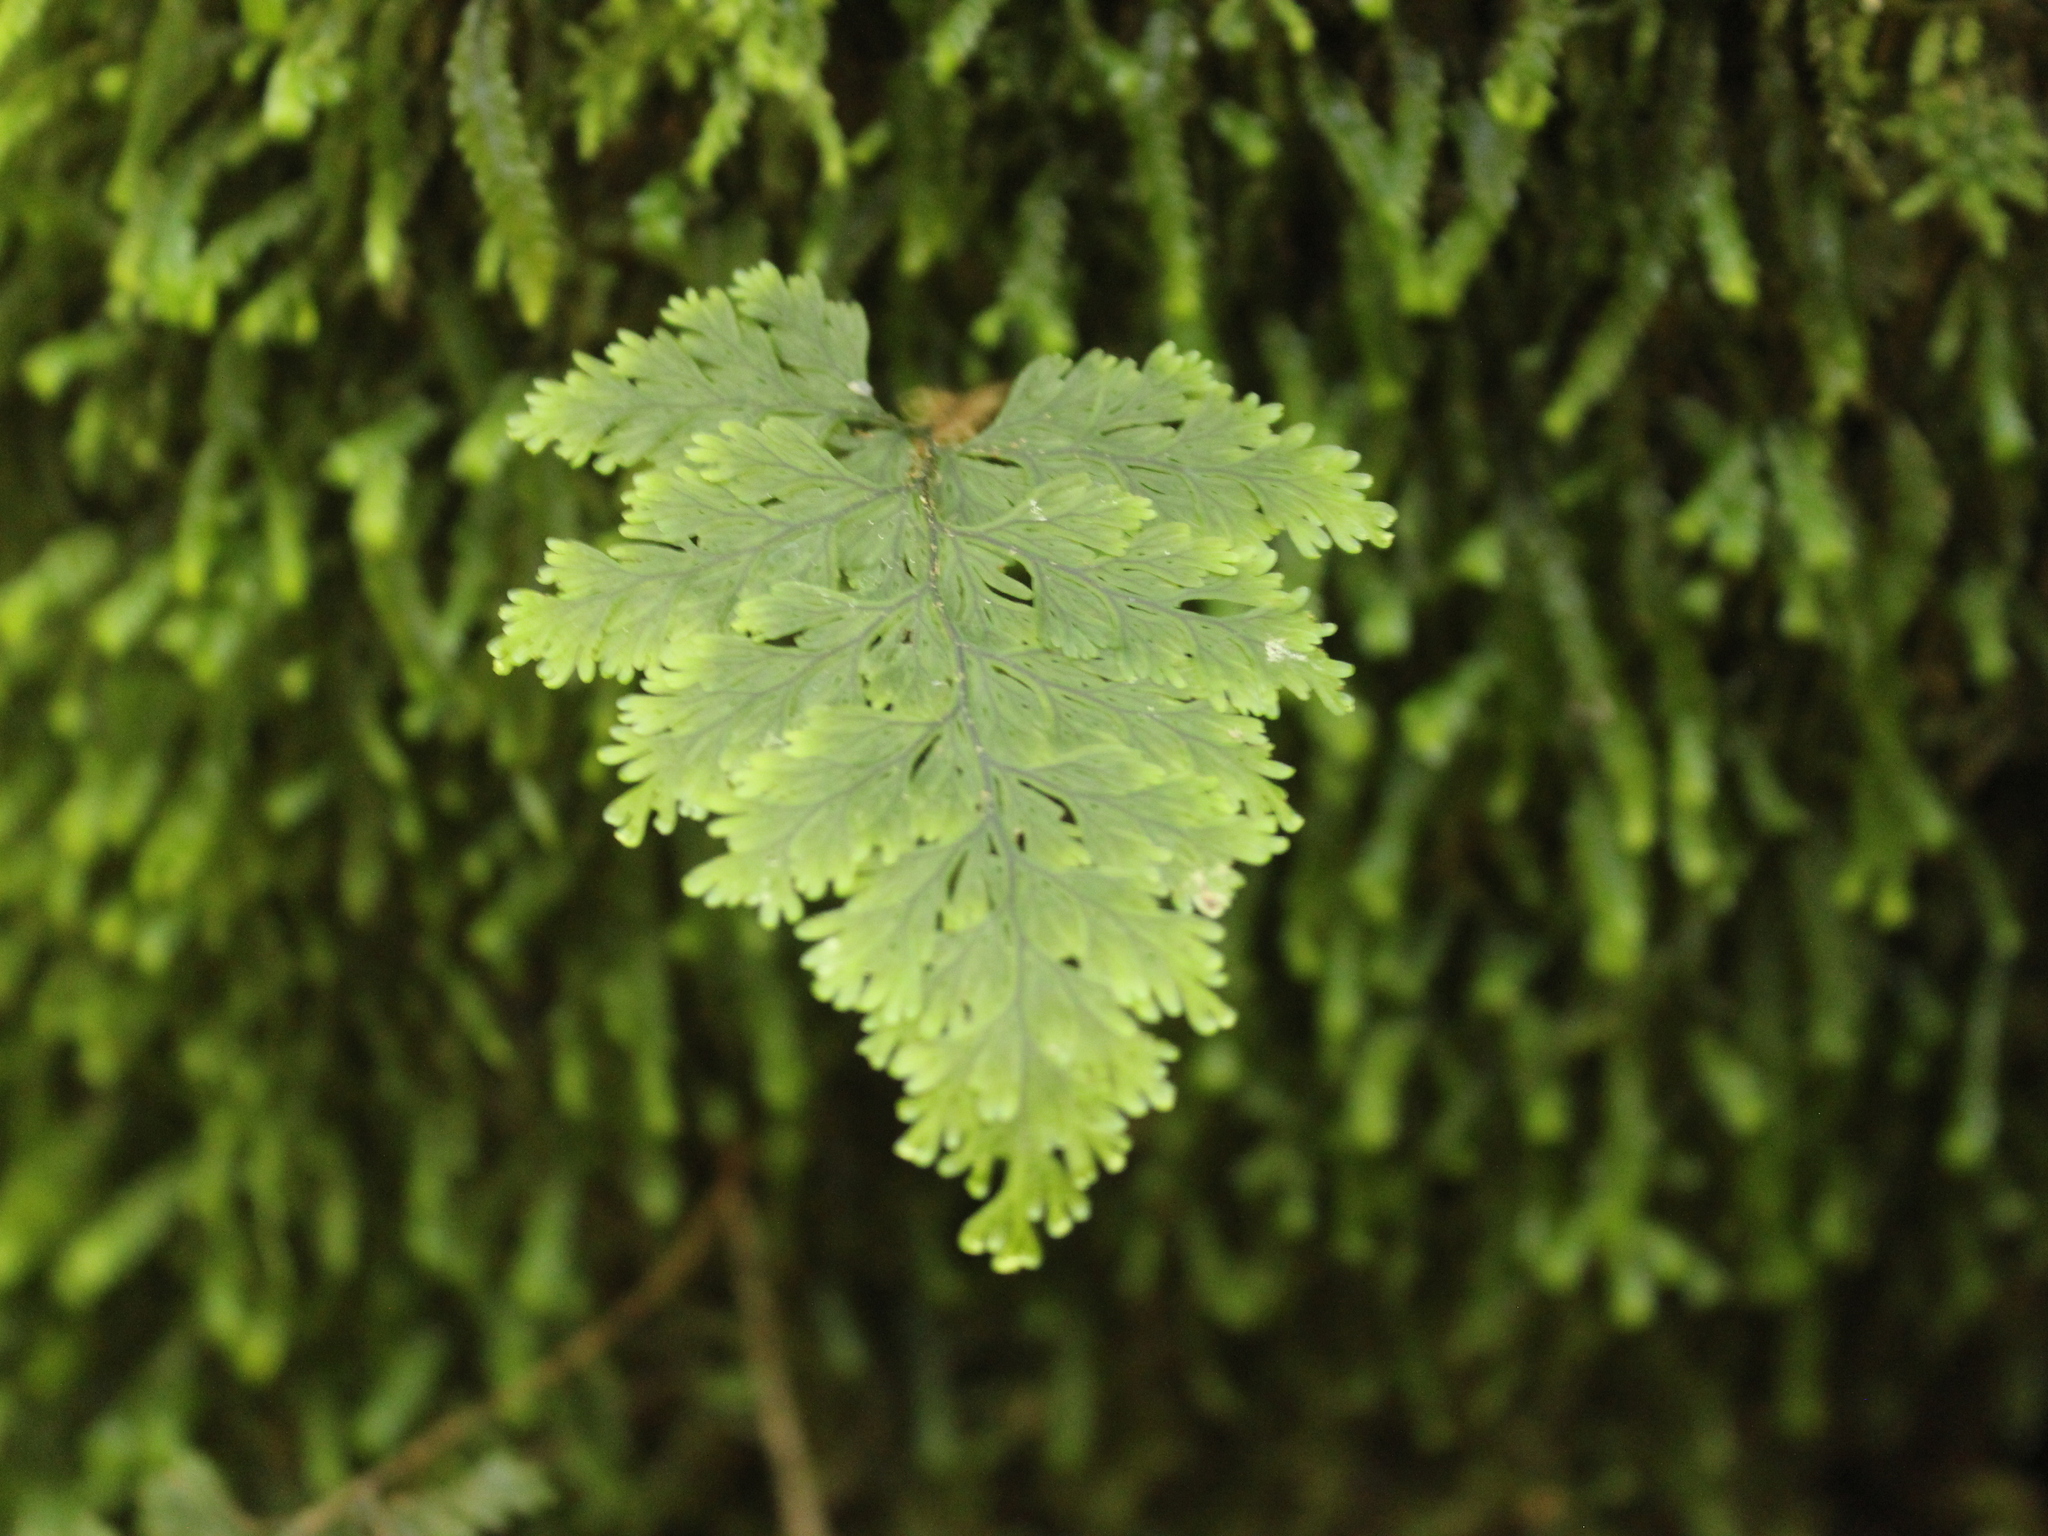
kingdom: Plantae
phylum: Tracheophyta
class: Polypodiopsida
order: Hymenophyllales
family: Hymenophyllaceae
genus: Hymenophyllum
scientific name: Hymenophyllum scabrum
